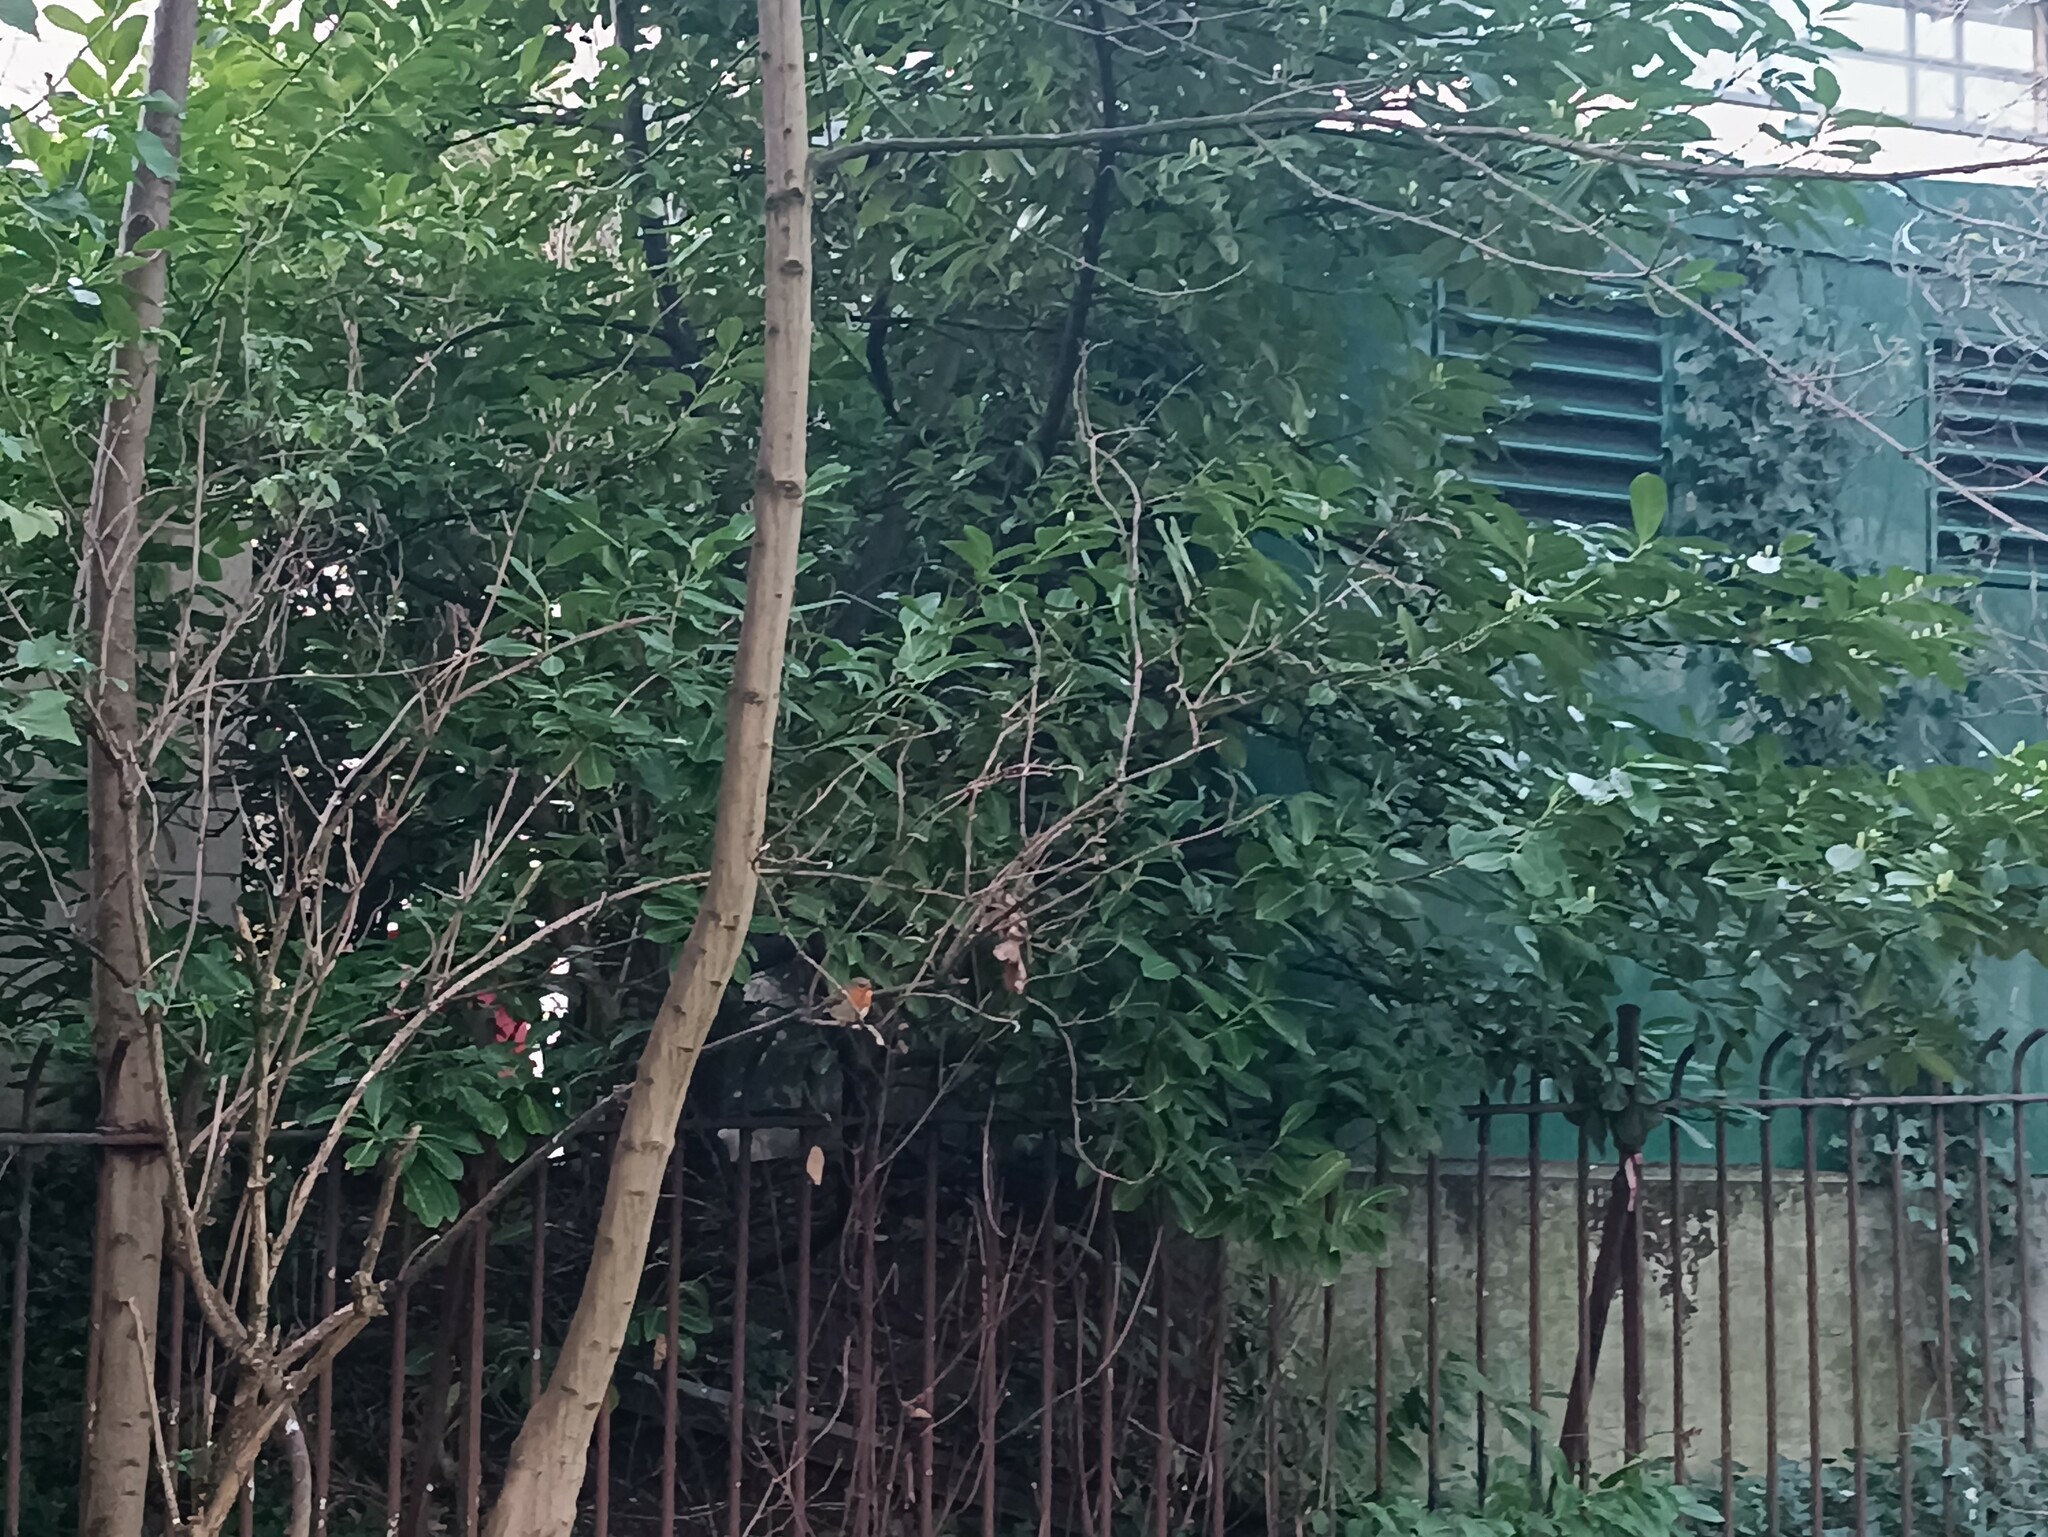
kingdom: Animalia
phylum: Chordata
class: Aves
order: Passeriformes
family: Muscicapidae
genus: Erithacus
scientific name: Erithacus rubecula
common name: European robin
